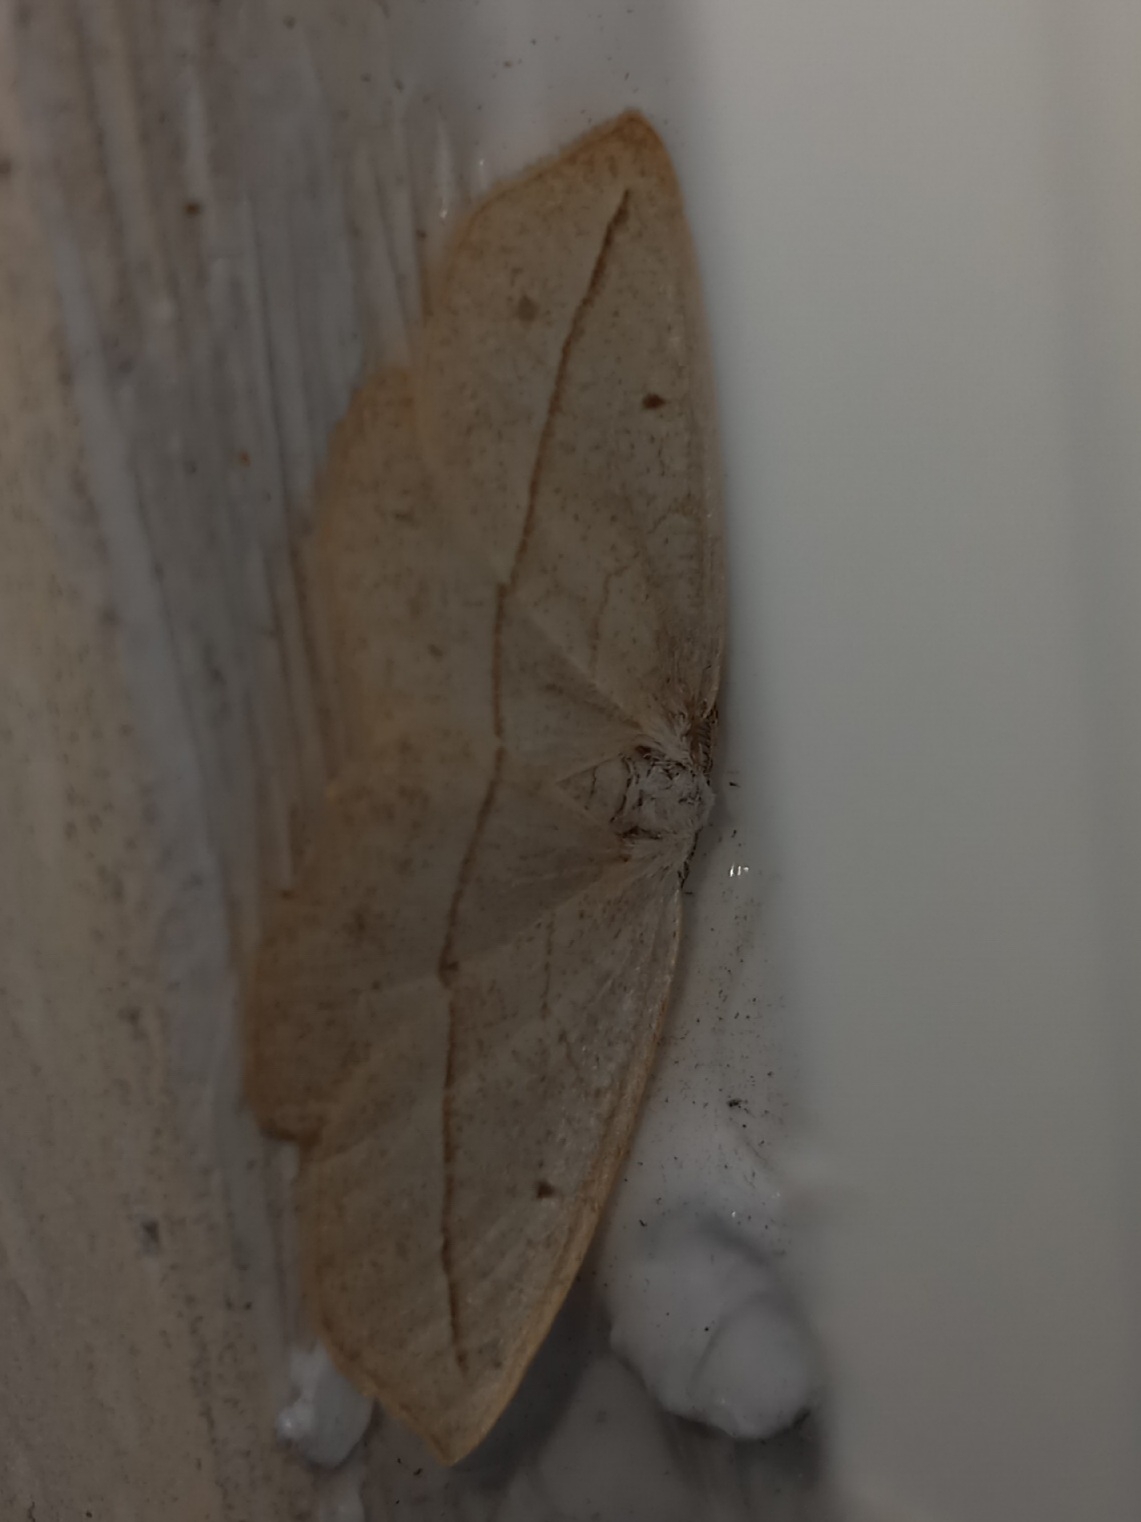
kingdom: Animalia
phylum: Arthropoda
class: Insecta
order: Lepidoptera
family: Geometridae
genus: Eusarca
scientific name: Eusarca confusaria
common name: Confused eusarca
